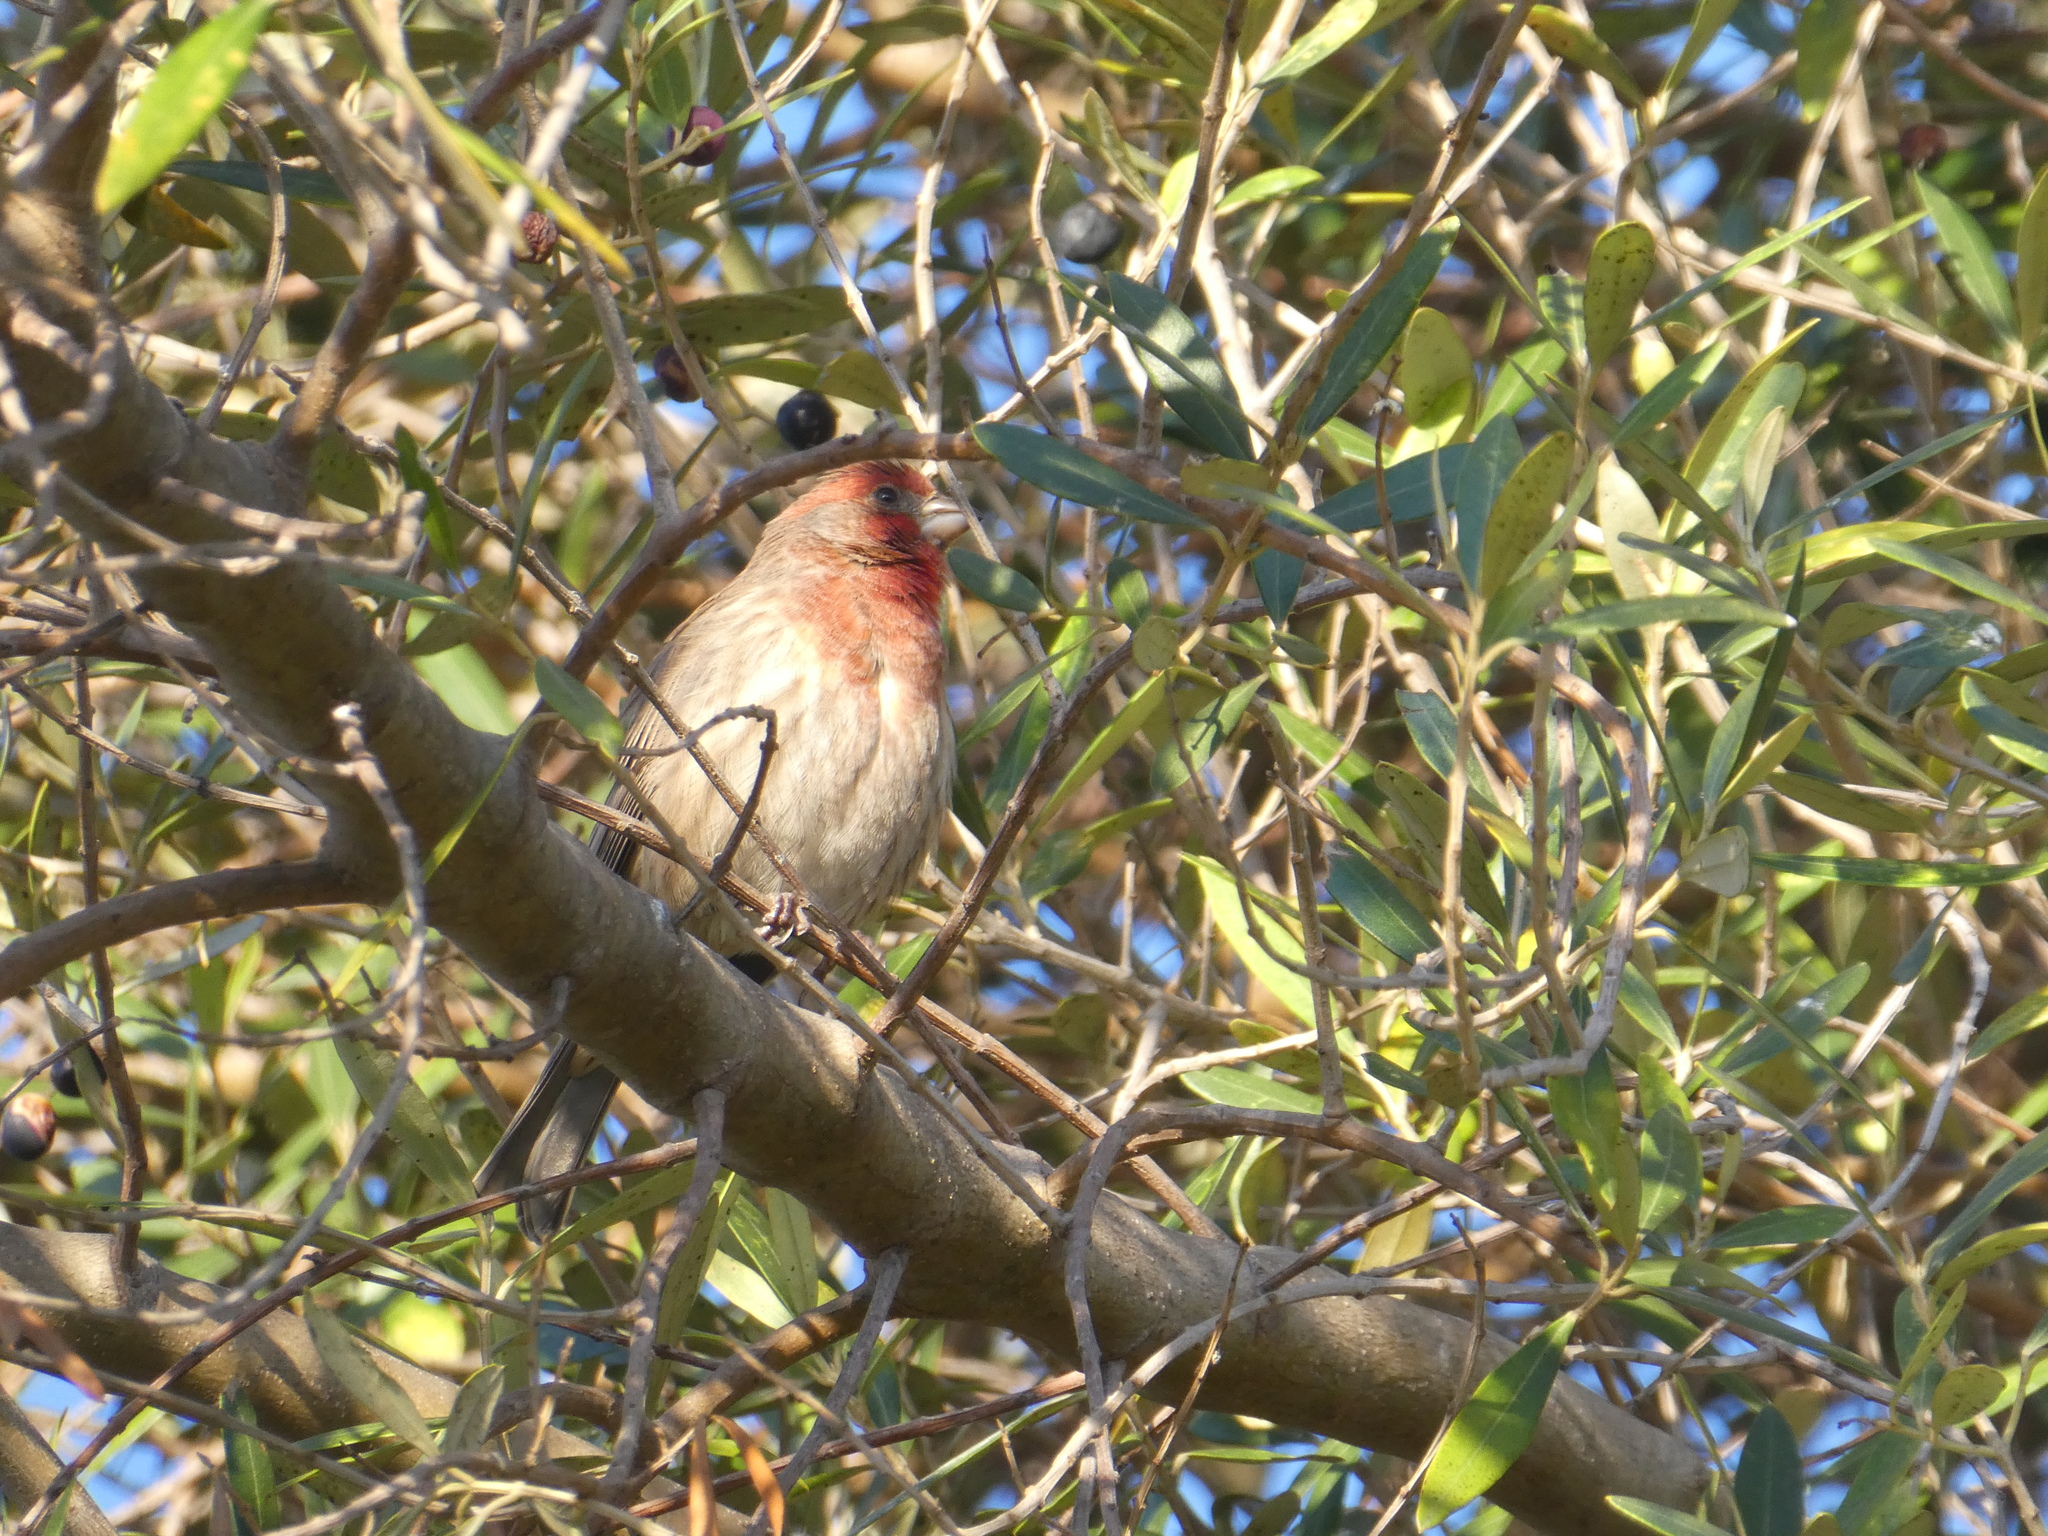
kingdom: Animalia
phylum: Chordata
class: Aves
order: Passeriformes
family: Fringillidae
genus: Haemorhous
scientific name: Haemorhous mexicanus
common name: House finch
